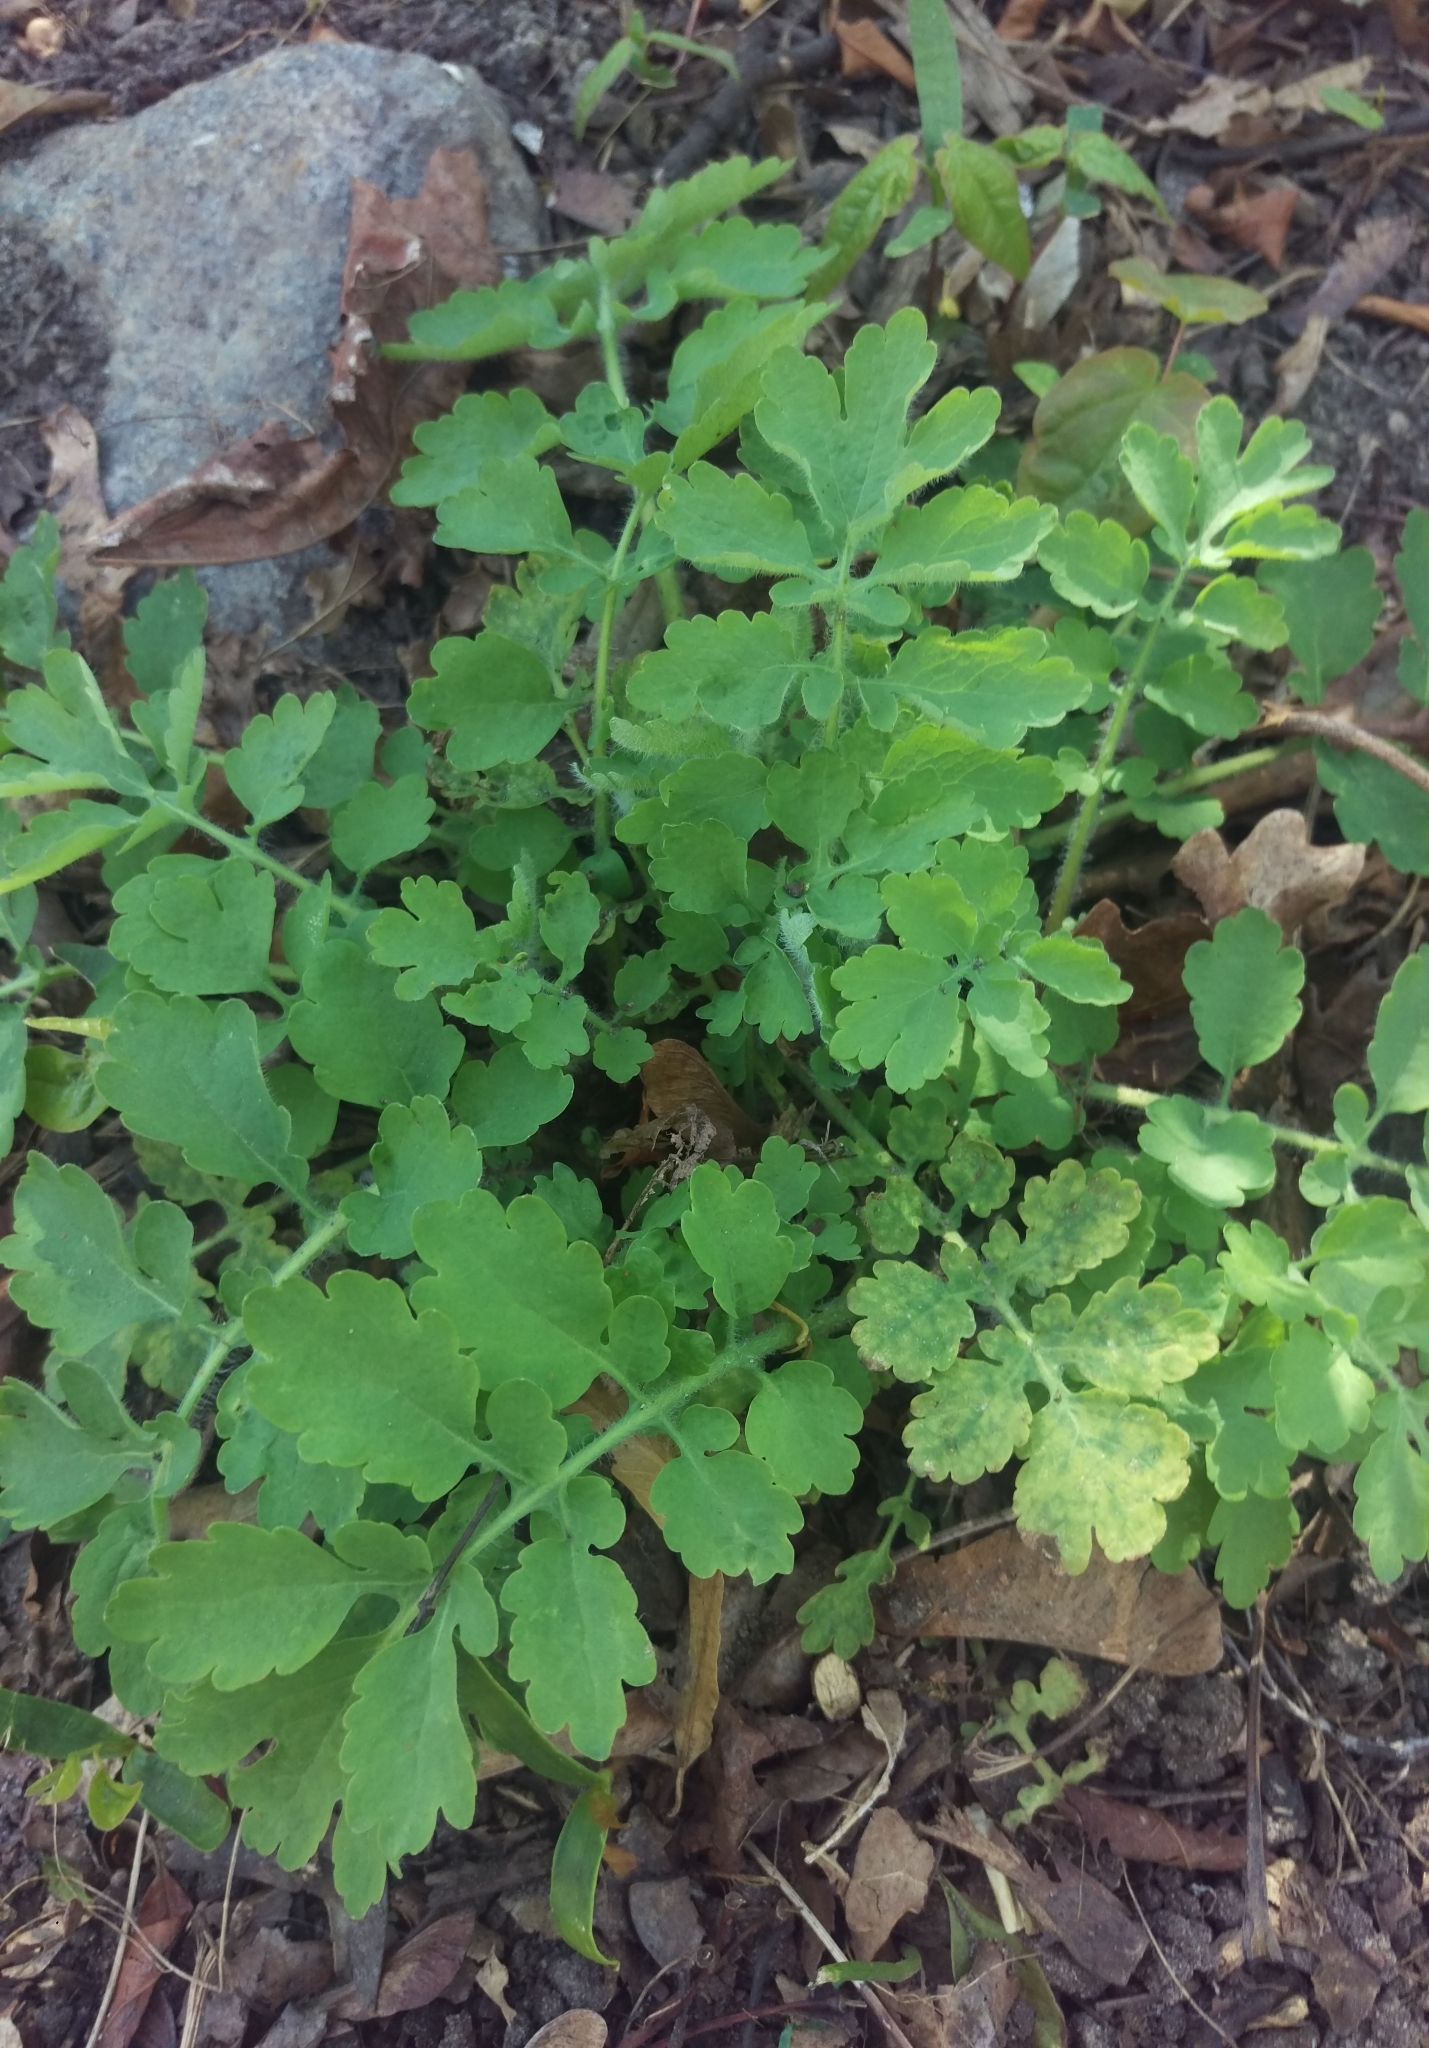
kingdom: Plantae
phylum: Tracheophyta
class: Magnoliopsida
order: Ranunculales
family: Papaveraceae
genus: Chelidonium
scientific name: Chelidonium majus
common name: Greater celandine
